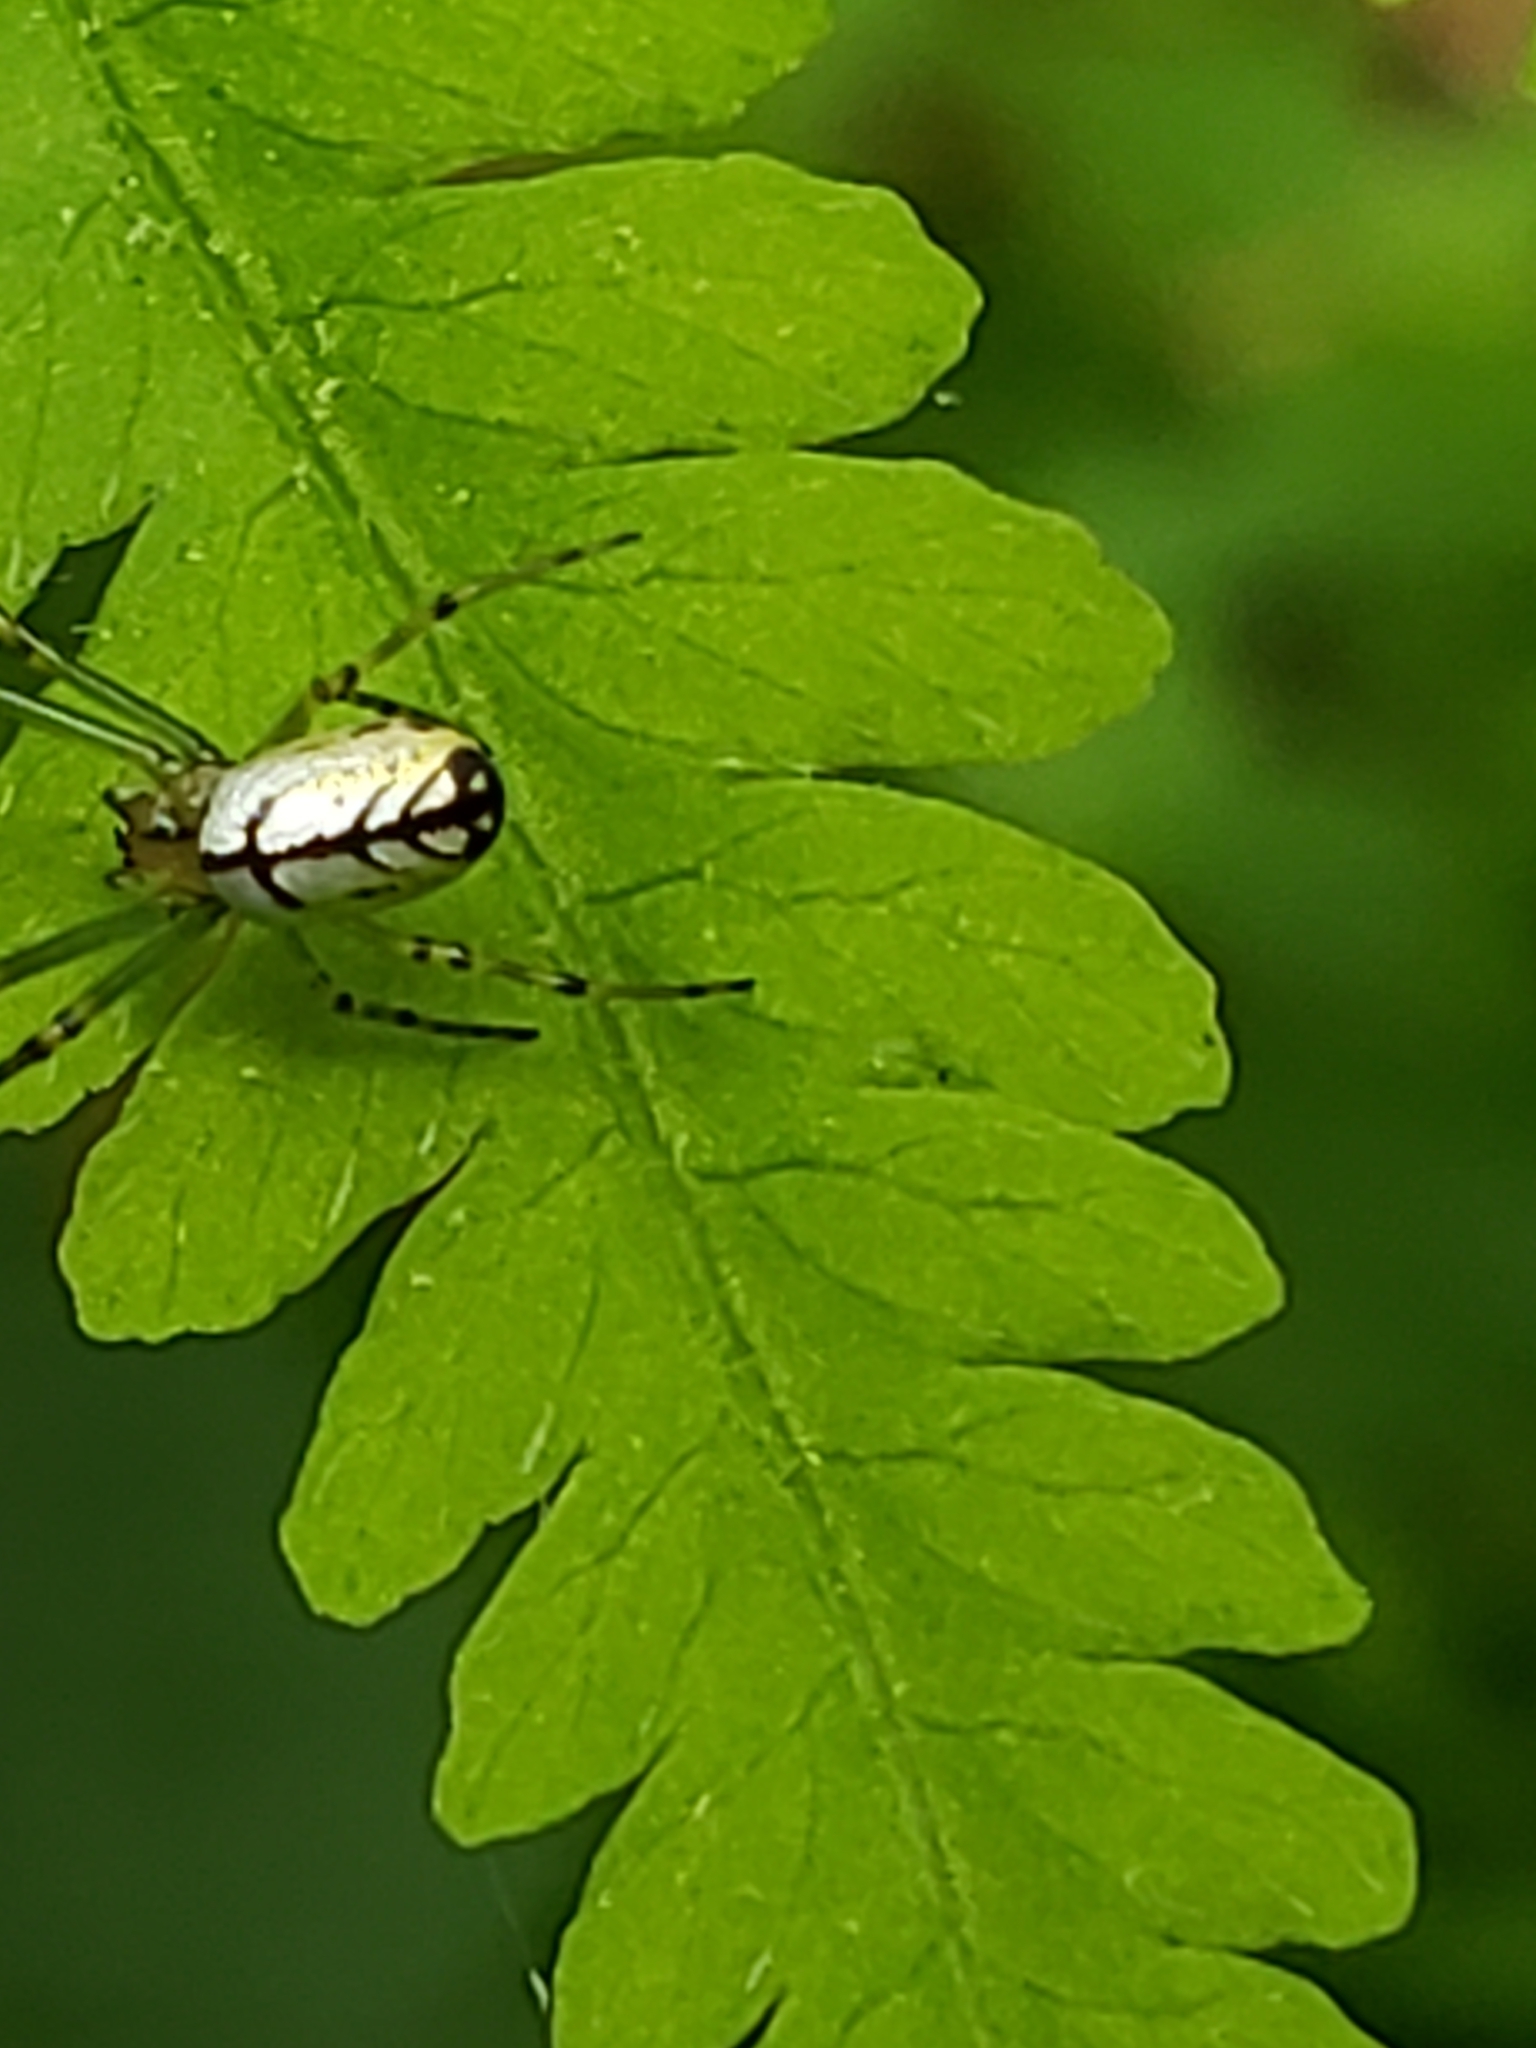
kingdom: Animalia
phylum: Arthropoda
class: Arachnida
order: Araneae
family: Tetragnathidae
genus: Leucauge
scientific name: Leucauge venusta
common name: Longjawed orb weavers
